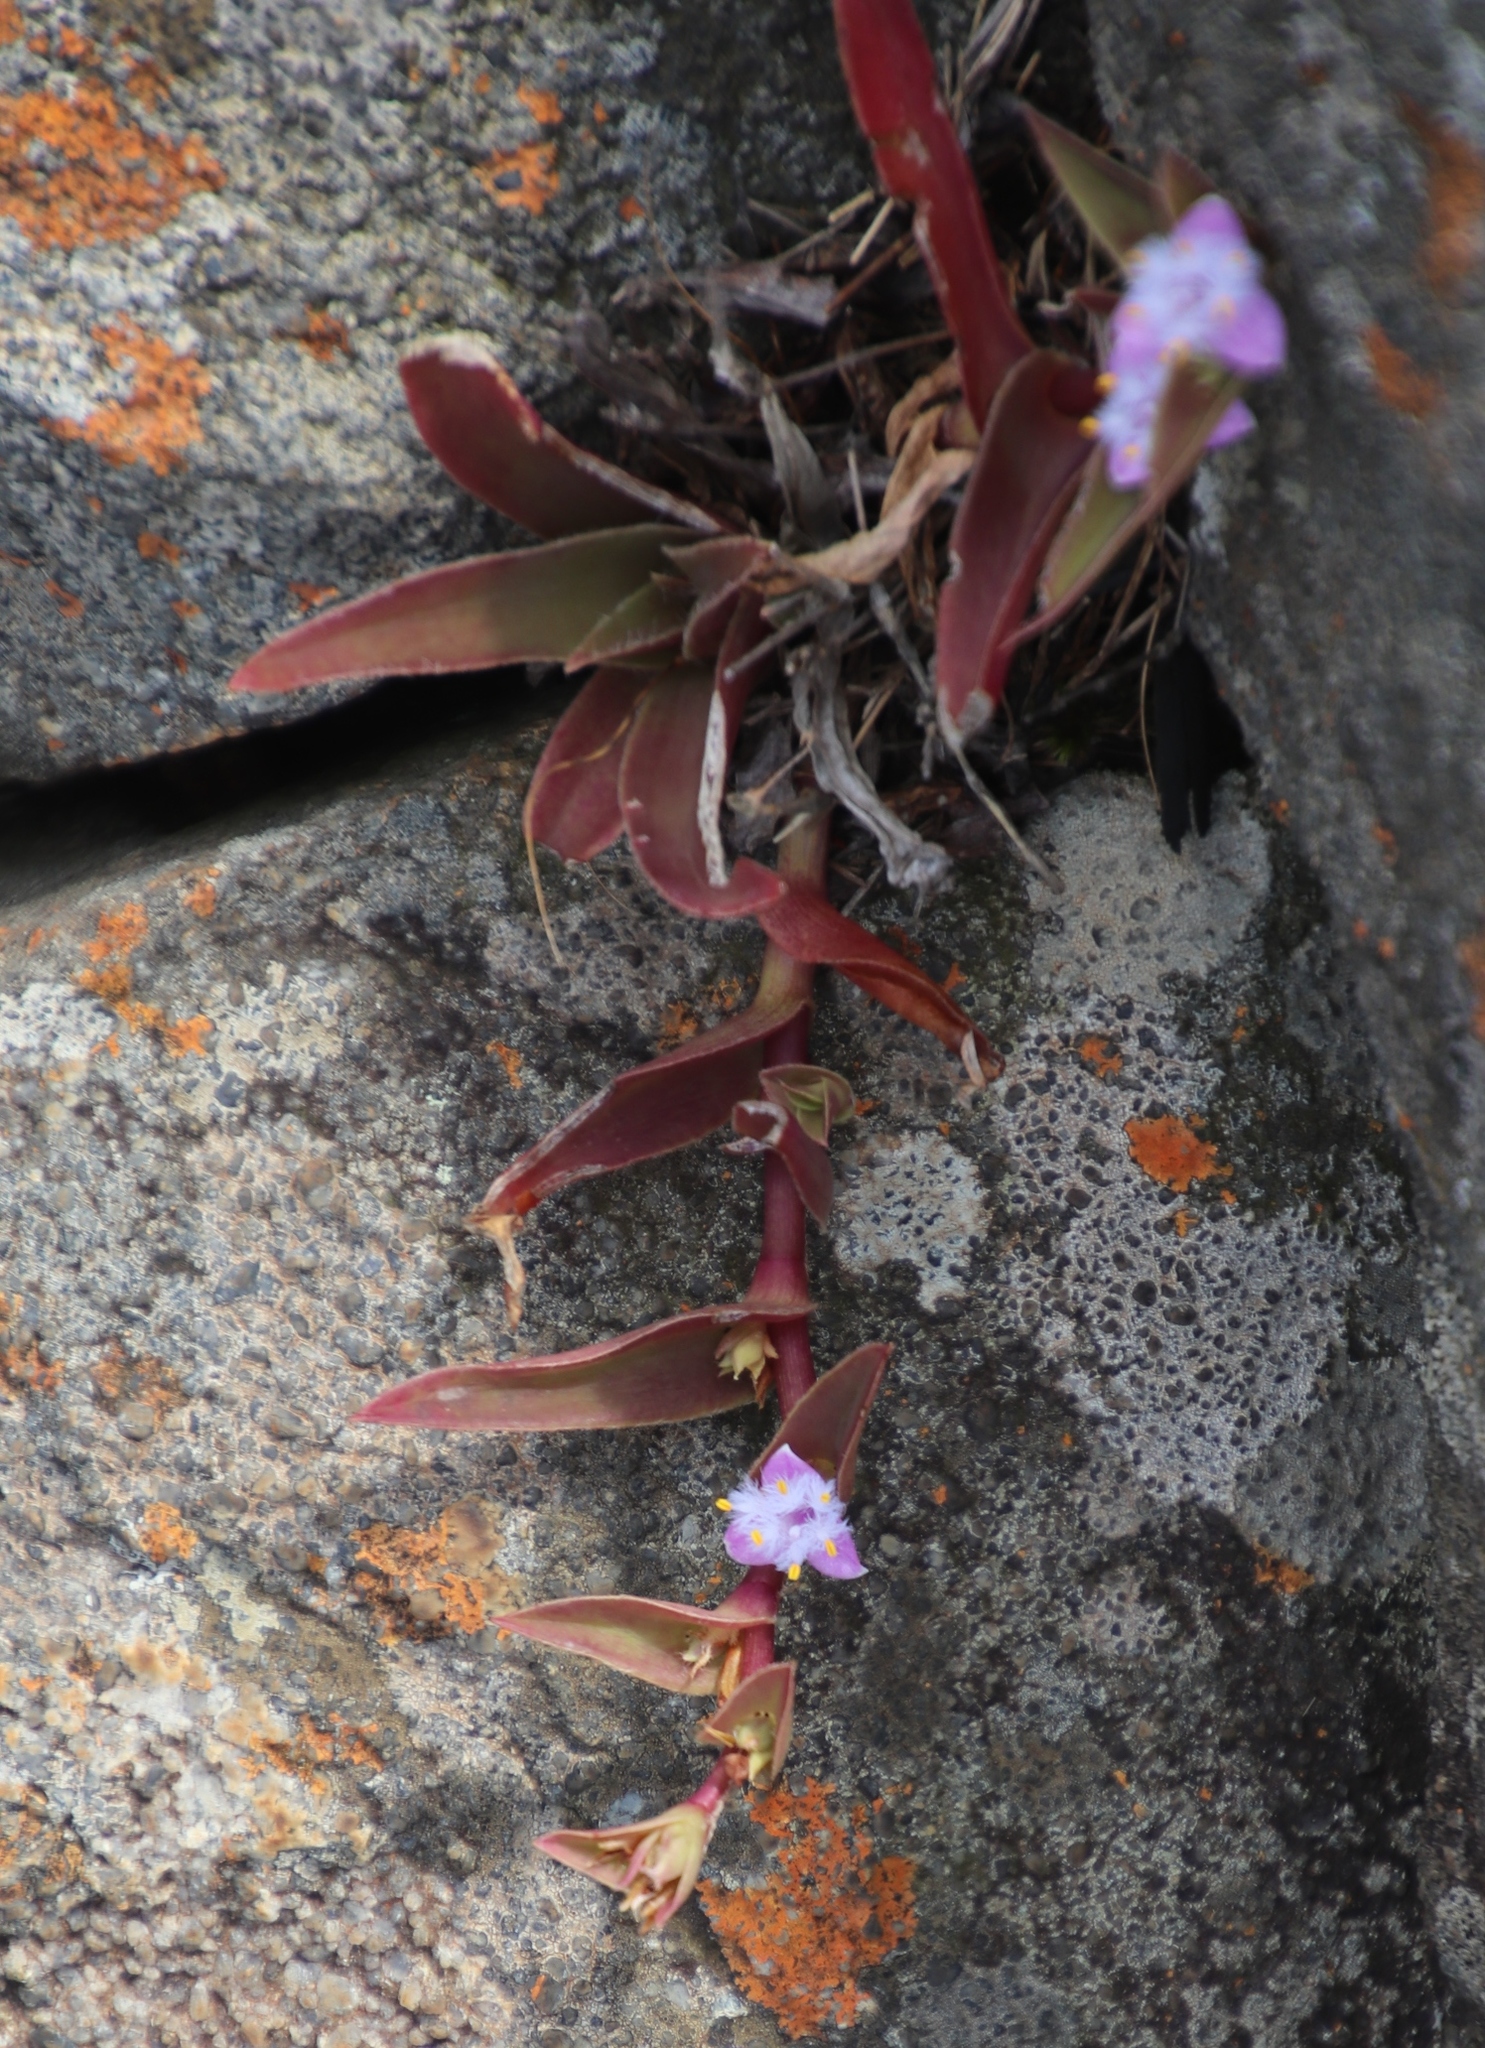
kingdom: Plantae
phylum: Tracheophyta
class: Liliopsida
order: Commelinales
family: Commelinaceae
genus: Cyanotis
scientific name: Cyanotis lapidosa
